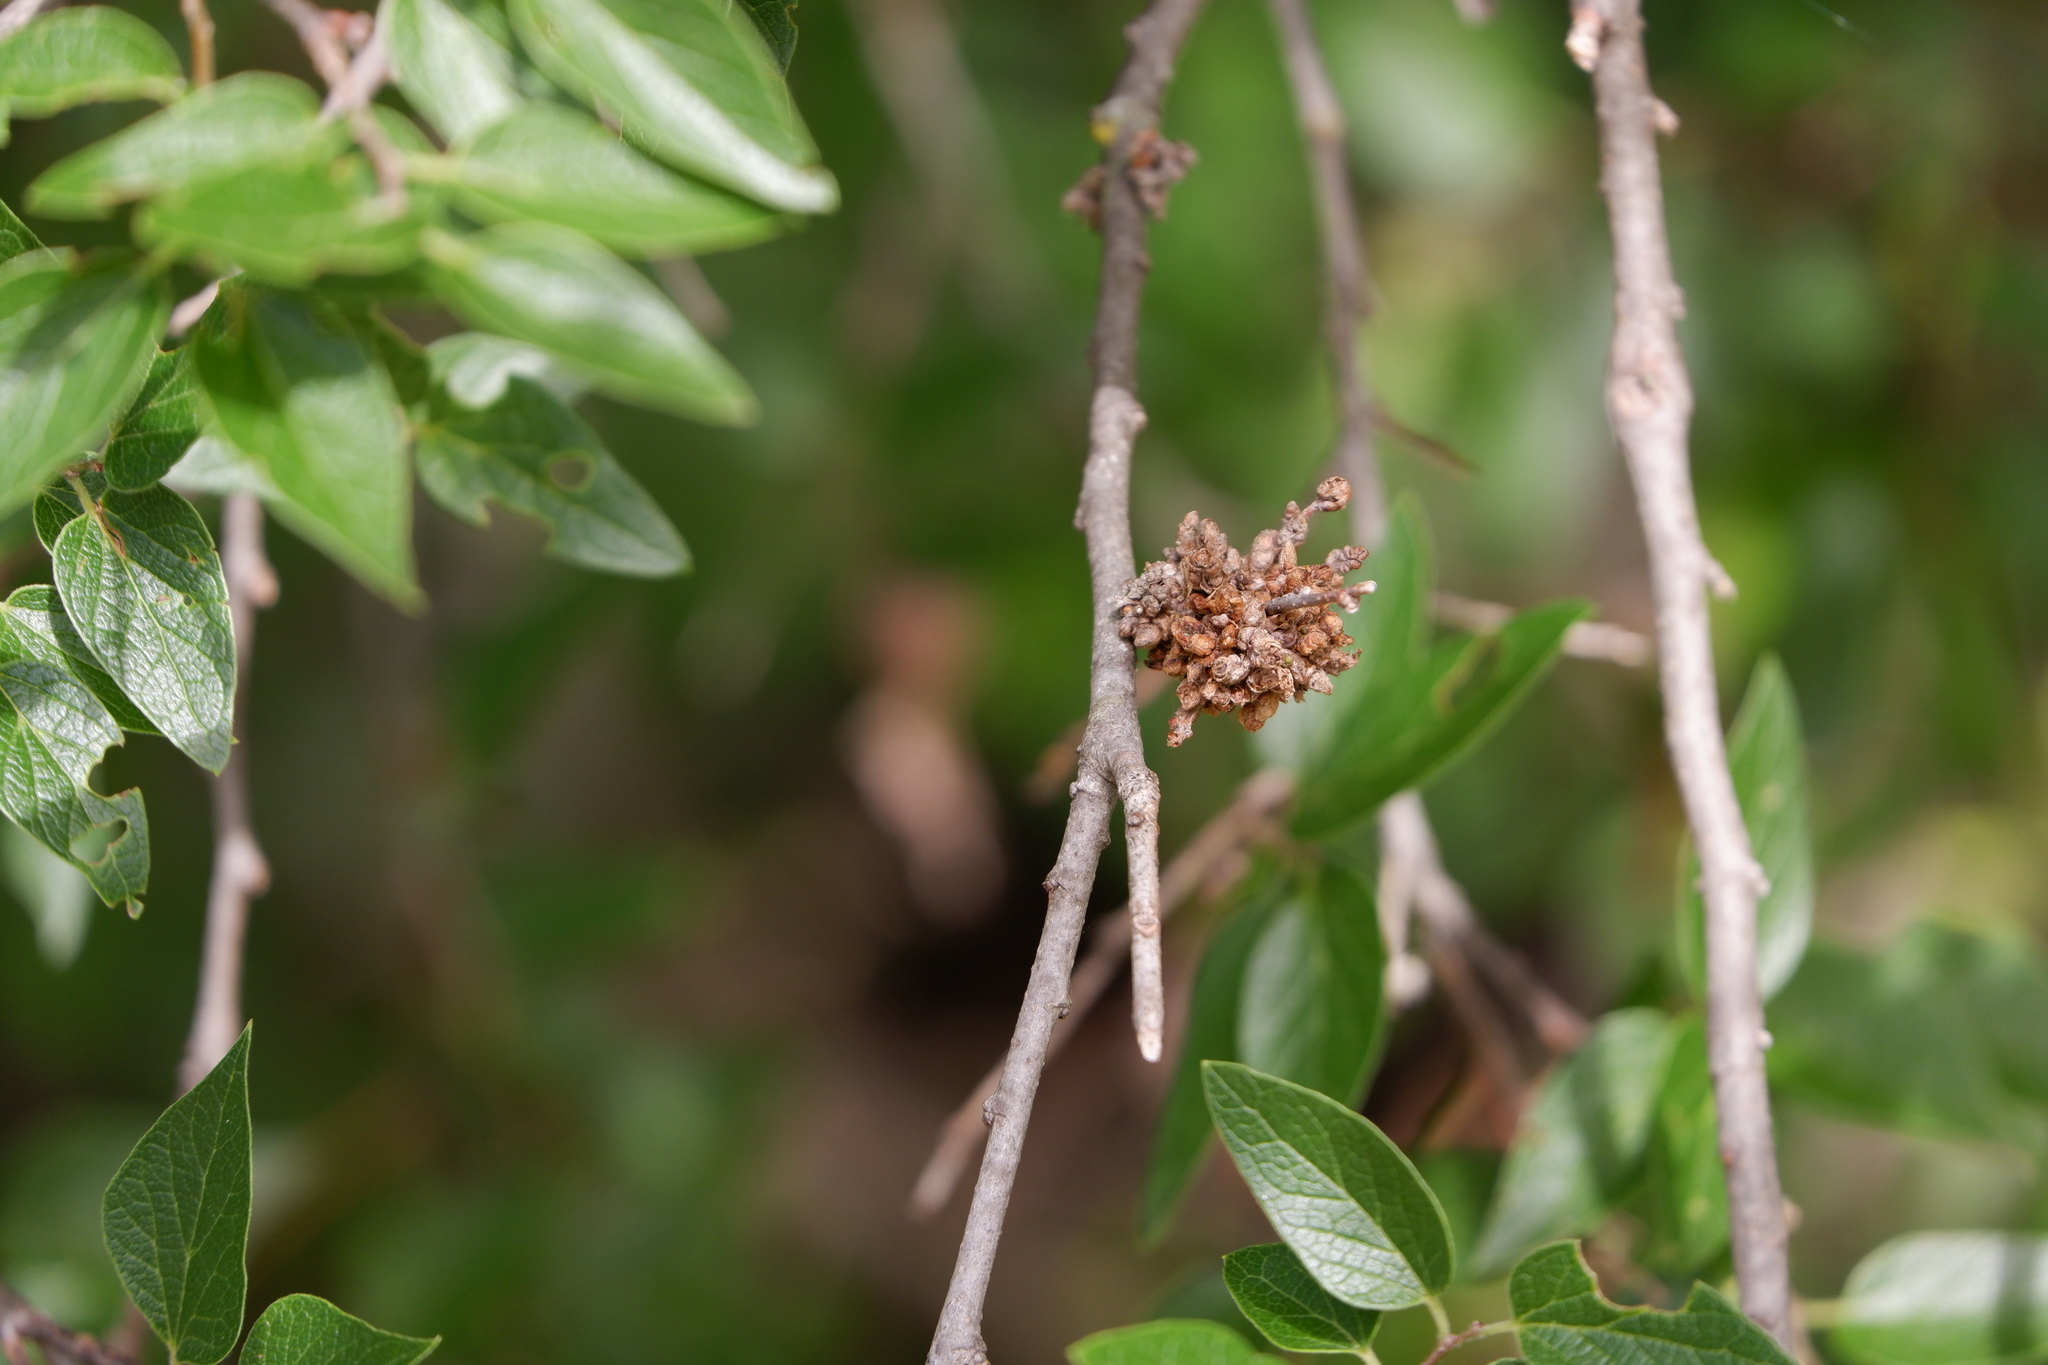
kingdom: Animalia
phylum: Arthropoda
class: Arachnida
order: Trombidiformes
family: Eriophyidae
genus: Aceria
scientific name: Aceria
